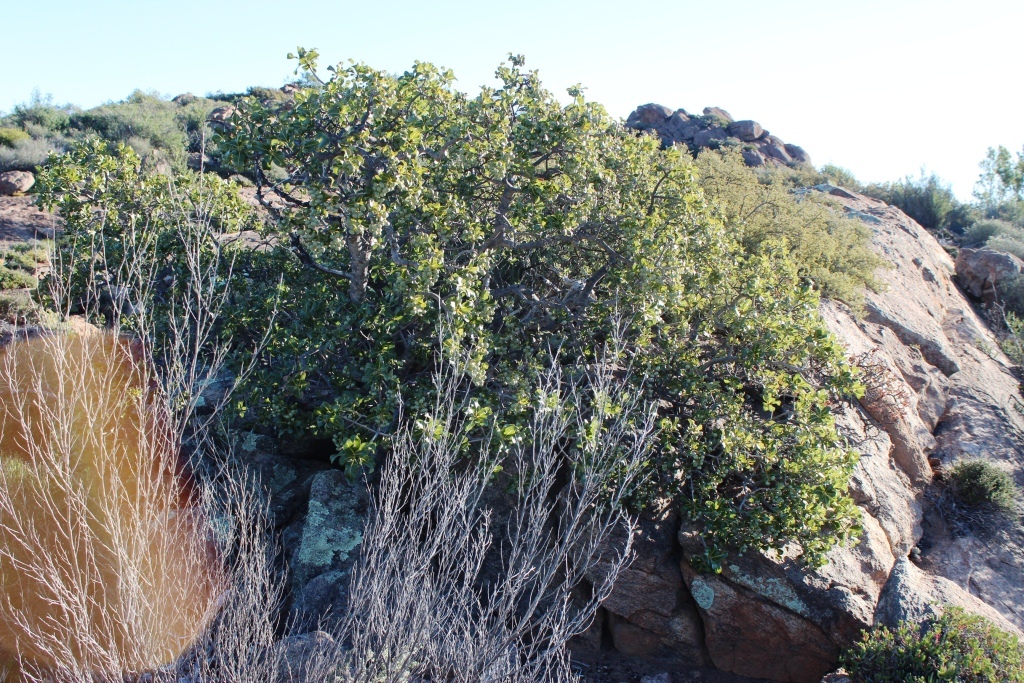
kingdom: Plantae
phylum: Tracheophyta
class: Magnoliopsida
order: Sapindales
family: Anacardiaceae
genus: Ozoroa
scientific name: Ozoroa dispar
